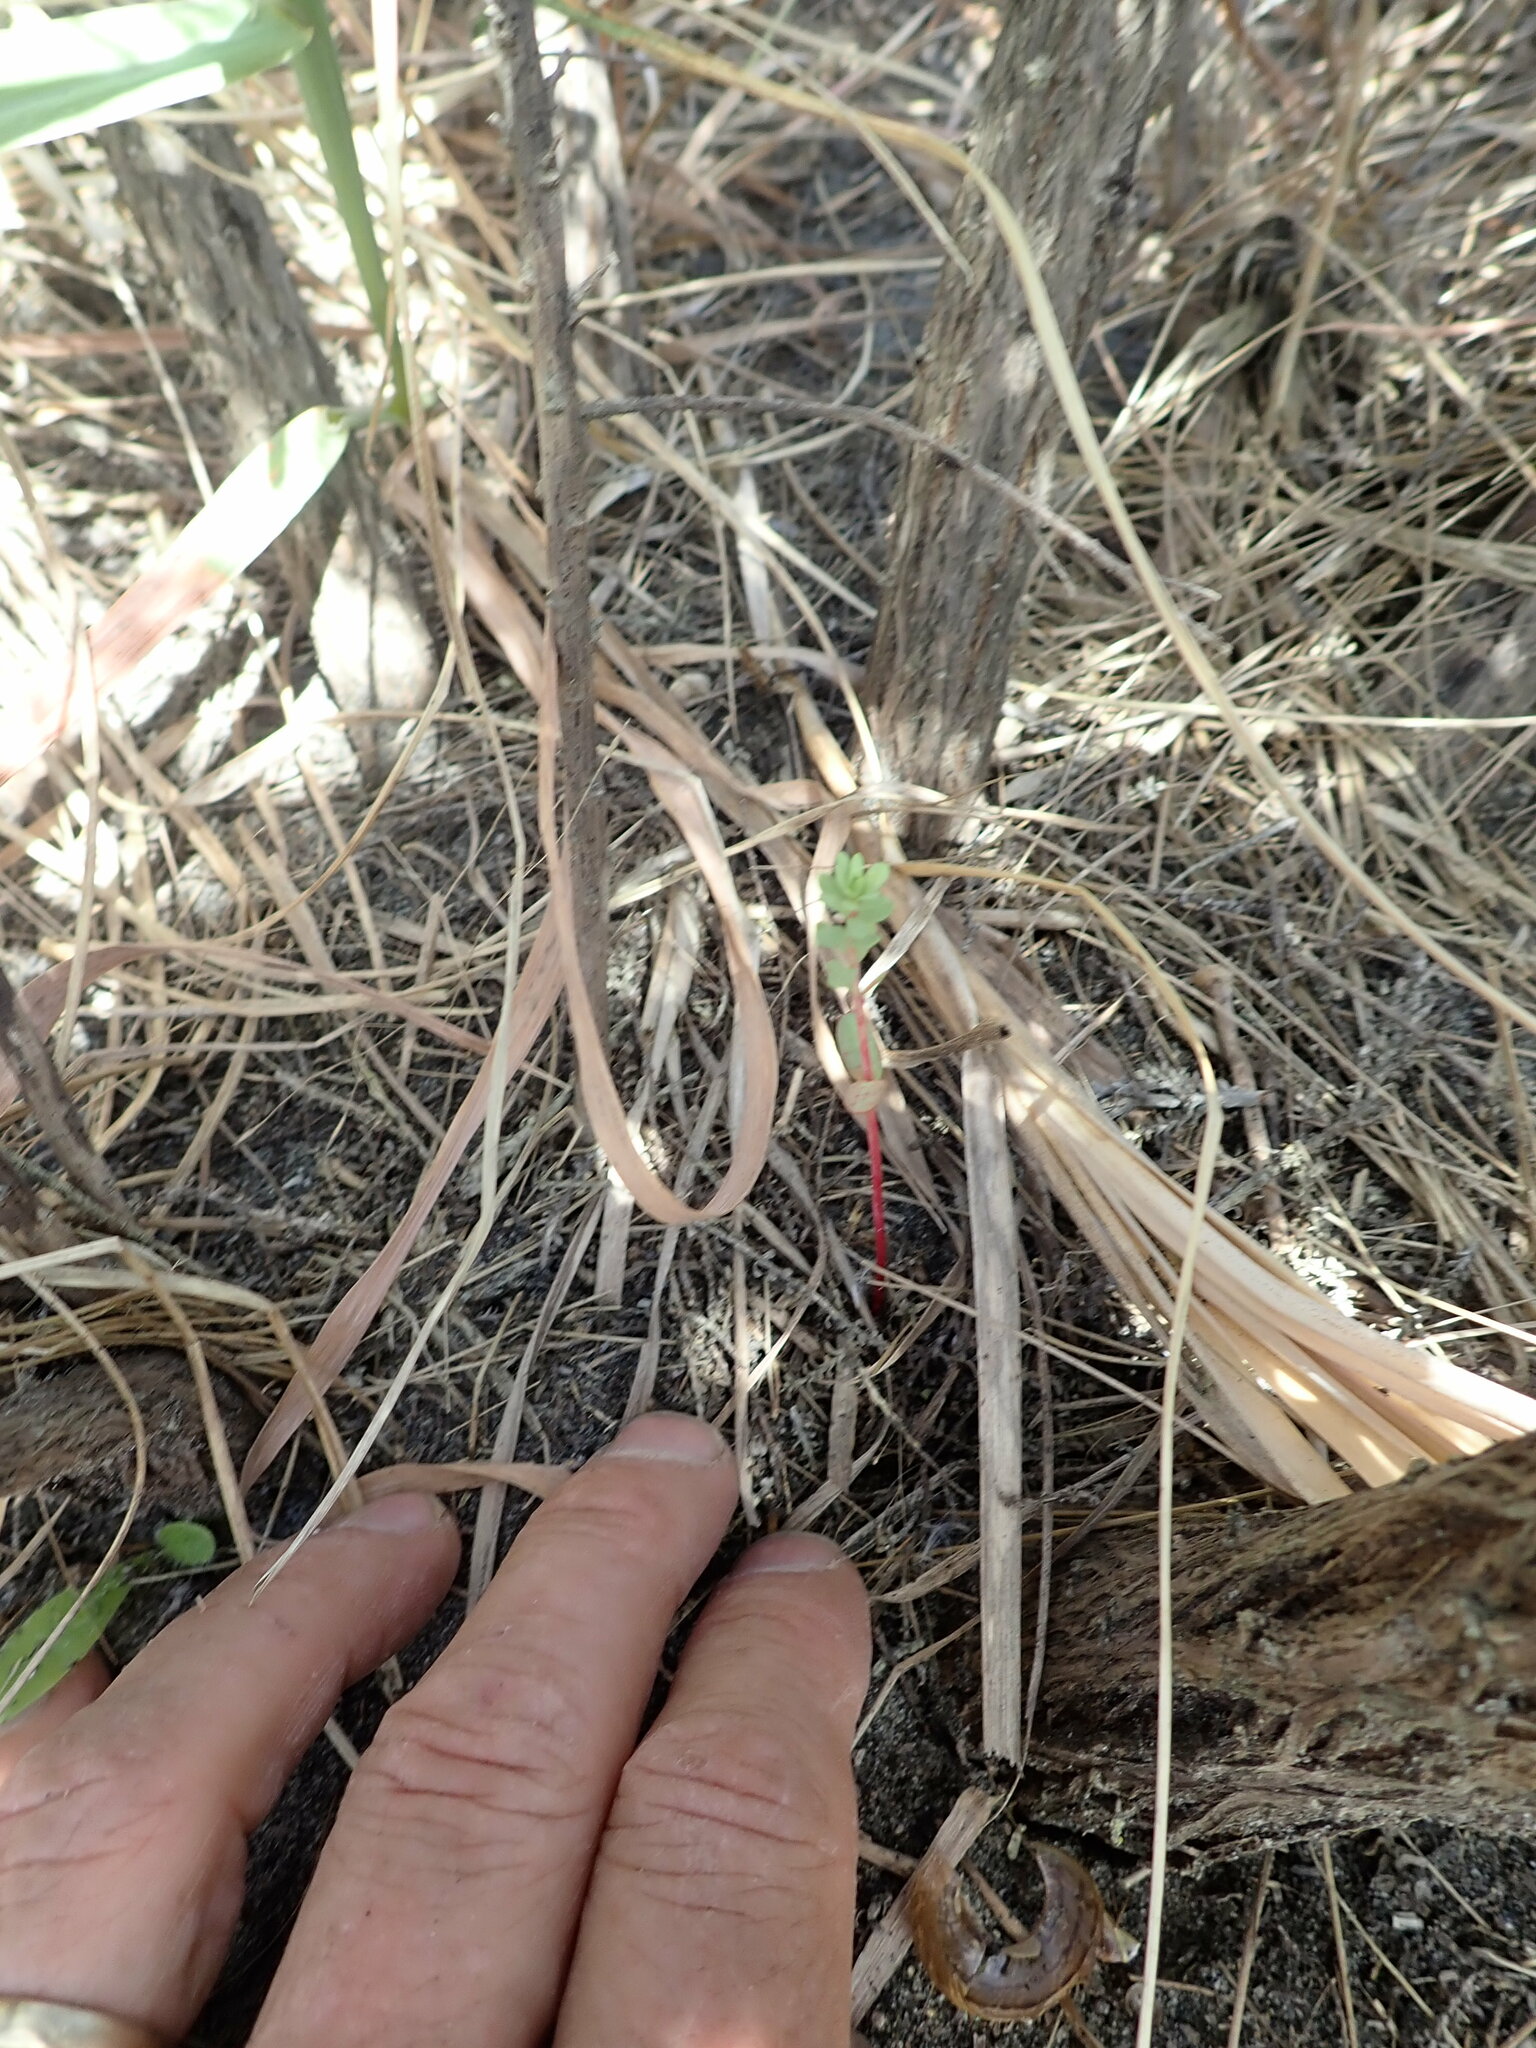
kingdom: Plantae
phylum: Tracheophyta
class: Magnoliopsida
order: Malpighiales
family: Euphorbiaceae
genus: Euphorbia
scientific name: Euphorbia paralias
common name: Sea spurge
